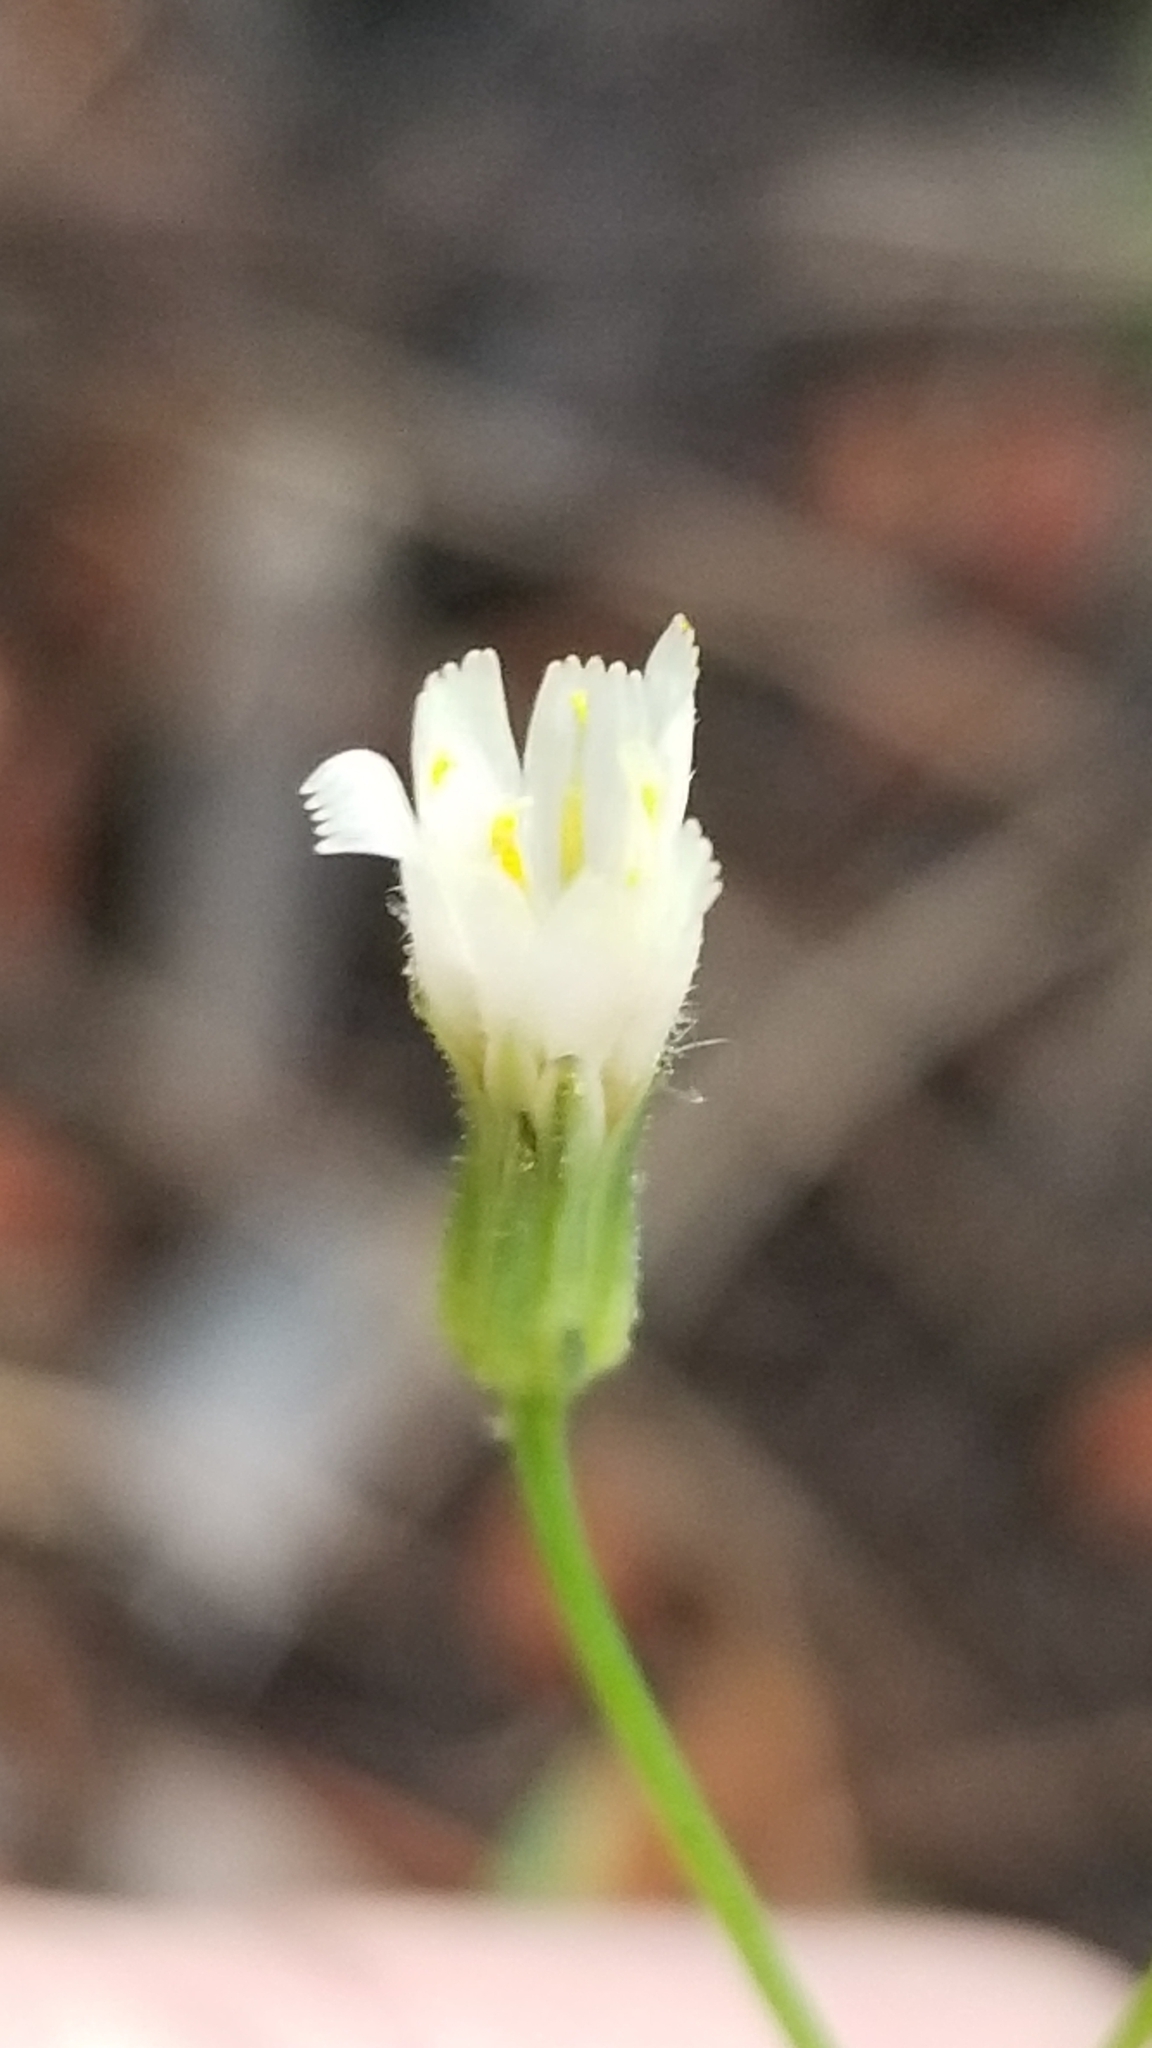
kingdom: Plantae
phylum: Tracheophyta
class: Magnoliopsida
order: Asterales
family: Asteraceae
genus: Hieracium
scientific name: Hieracium albiflorum
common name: White hawkweed
